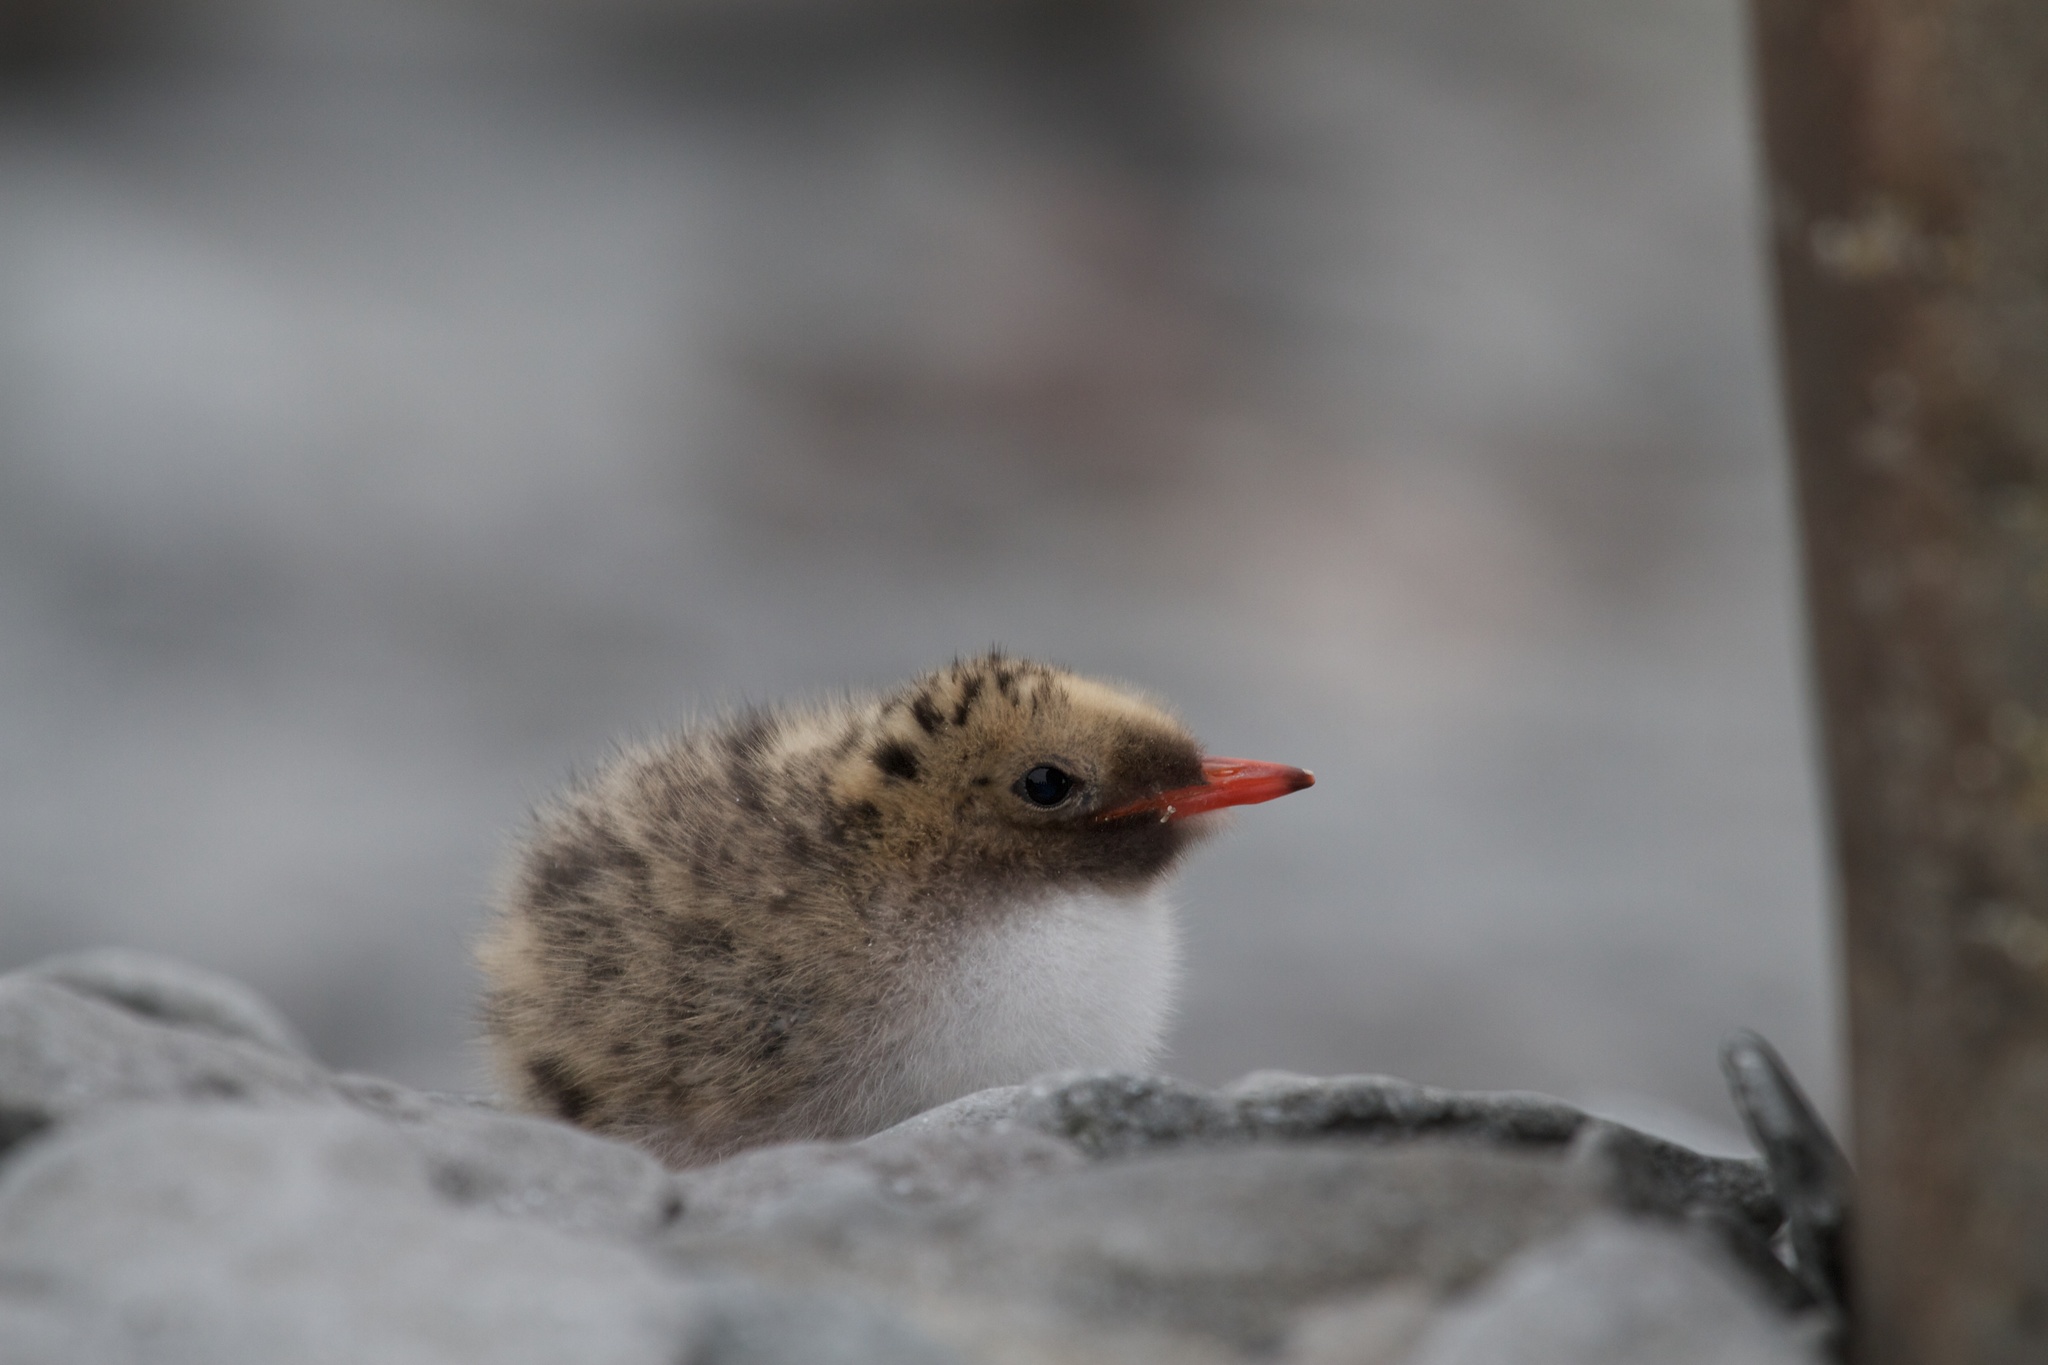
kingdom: Animalia
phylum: Chordata
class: Aves
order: Charadriiformes
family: Laridae
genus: Sterna
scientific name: Sterna paradisaea
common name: Arctic tern
